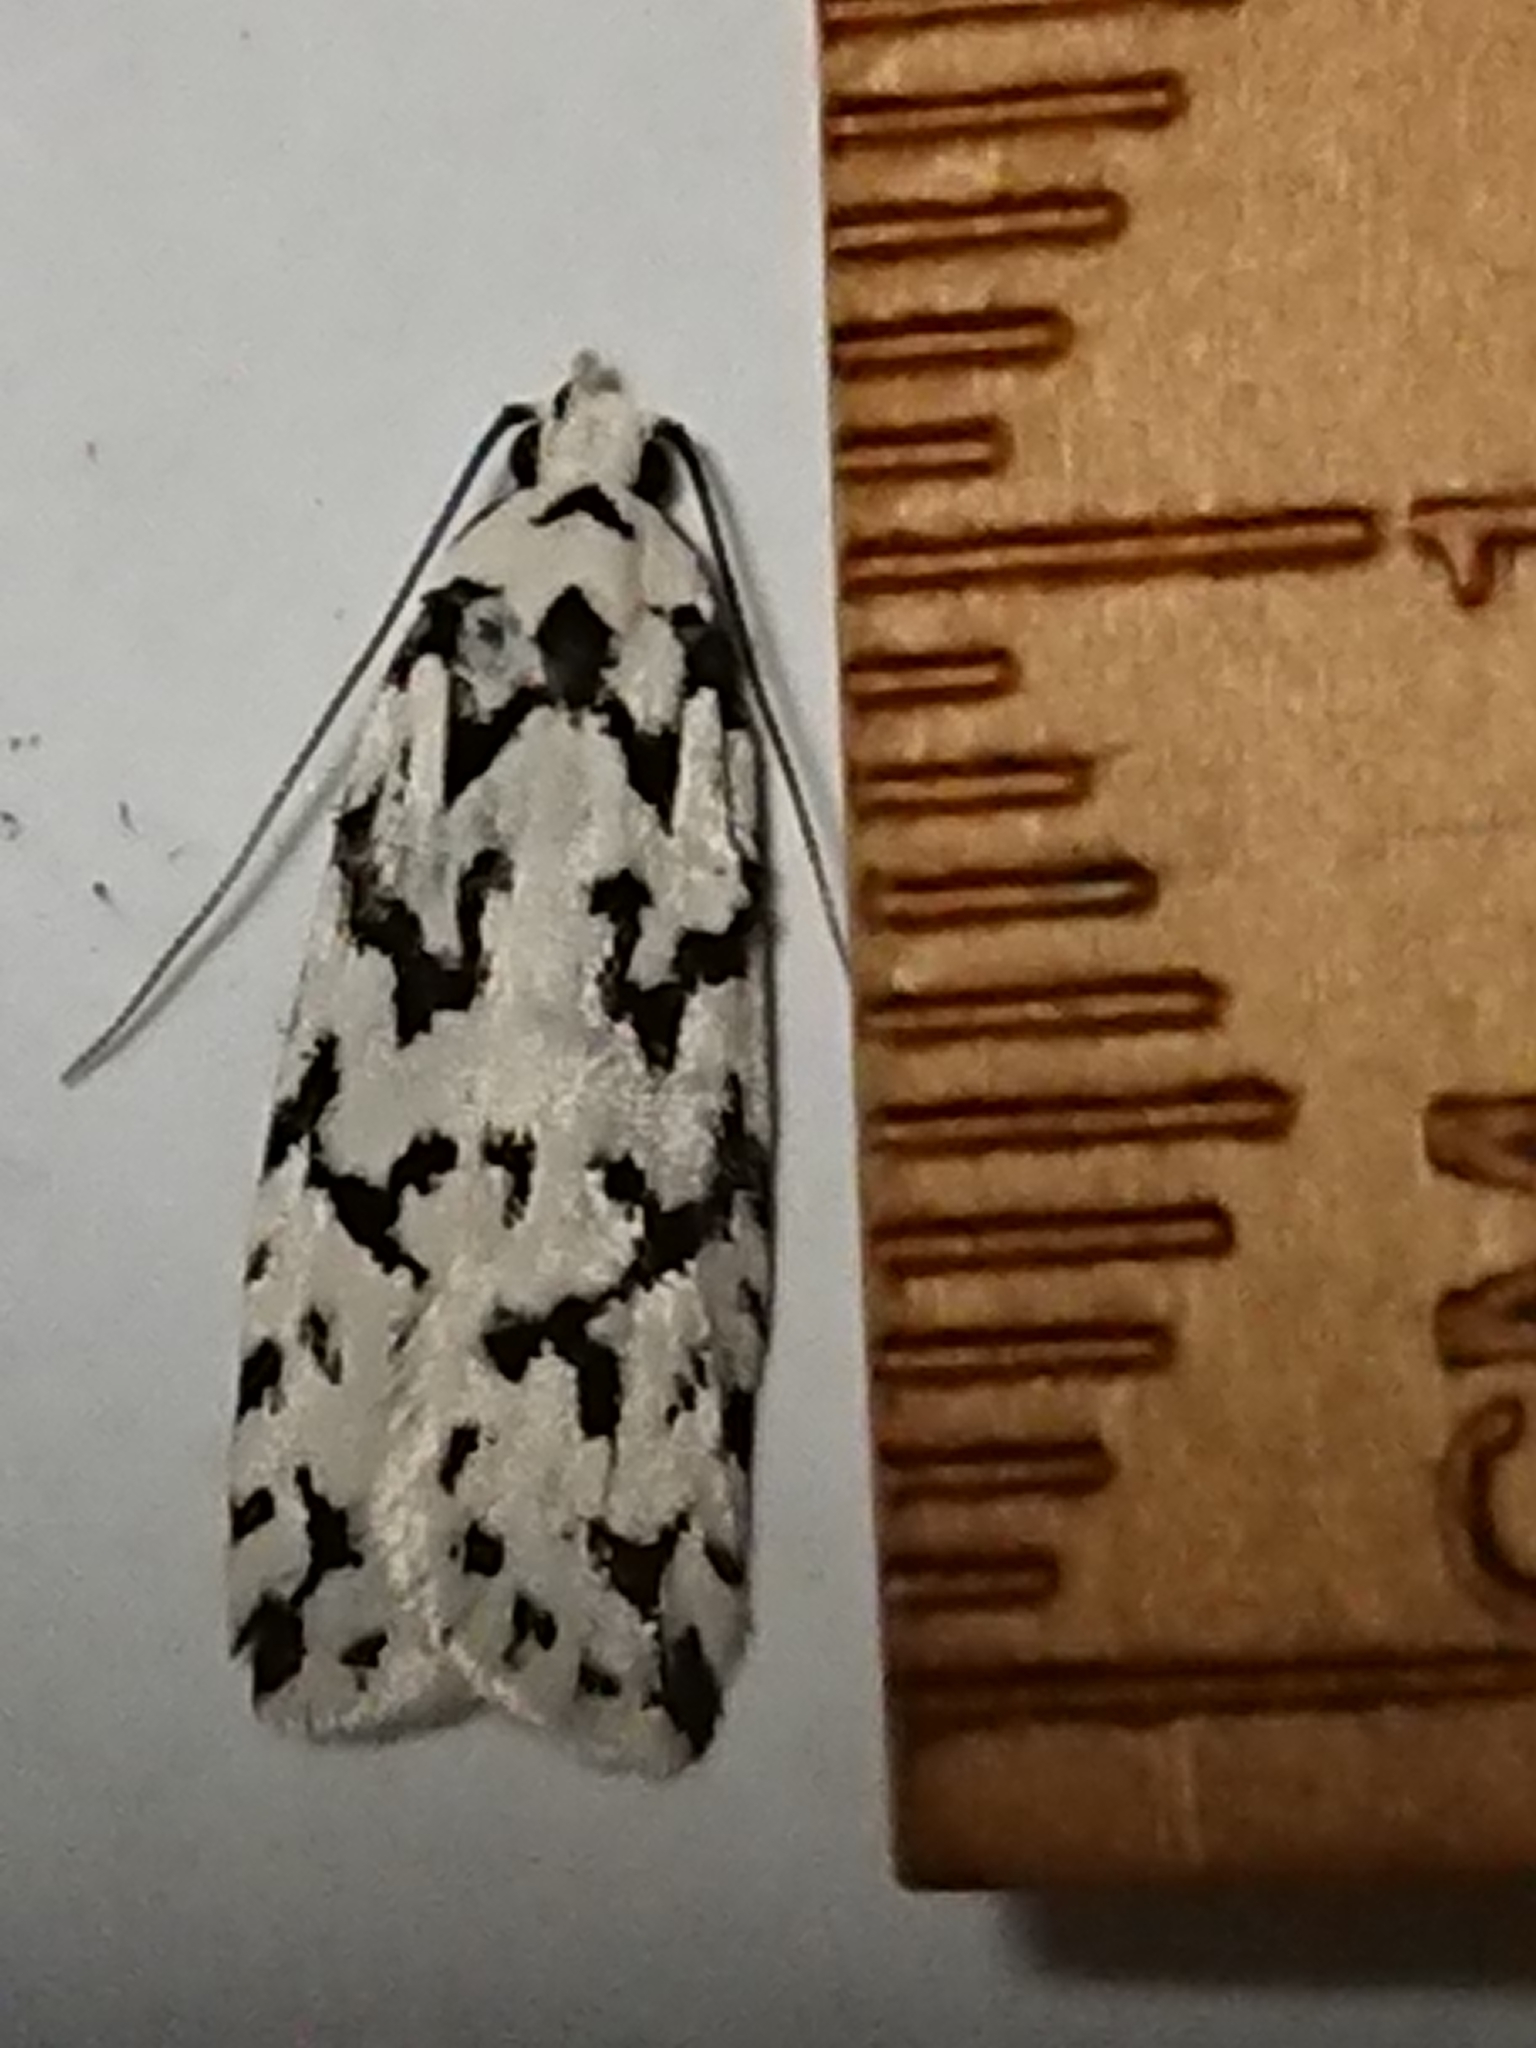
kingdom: Animalia
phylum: Arthropoda
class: Insecta
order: Lepidoptera
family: Oecophoridae
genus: Izatha
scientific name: Izatha katadiktya
